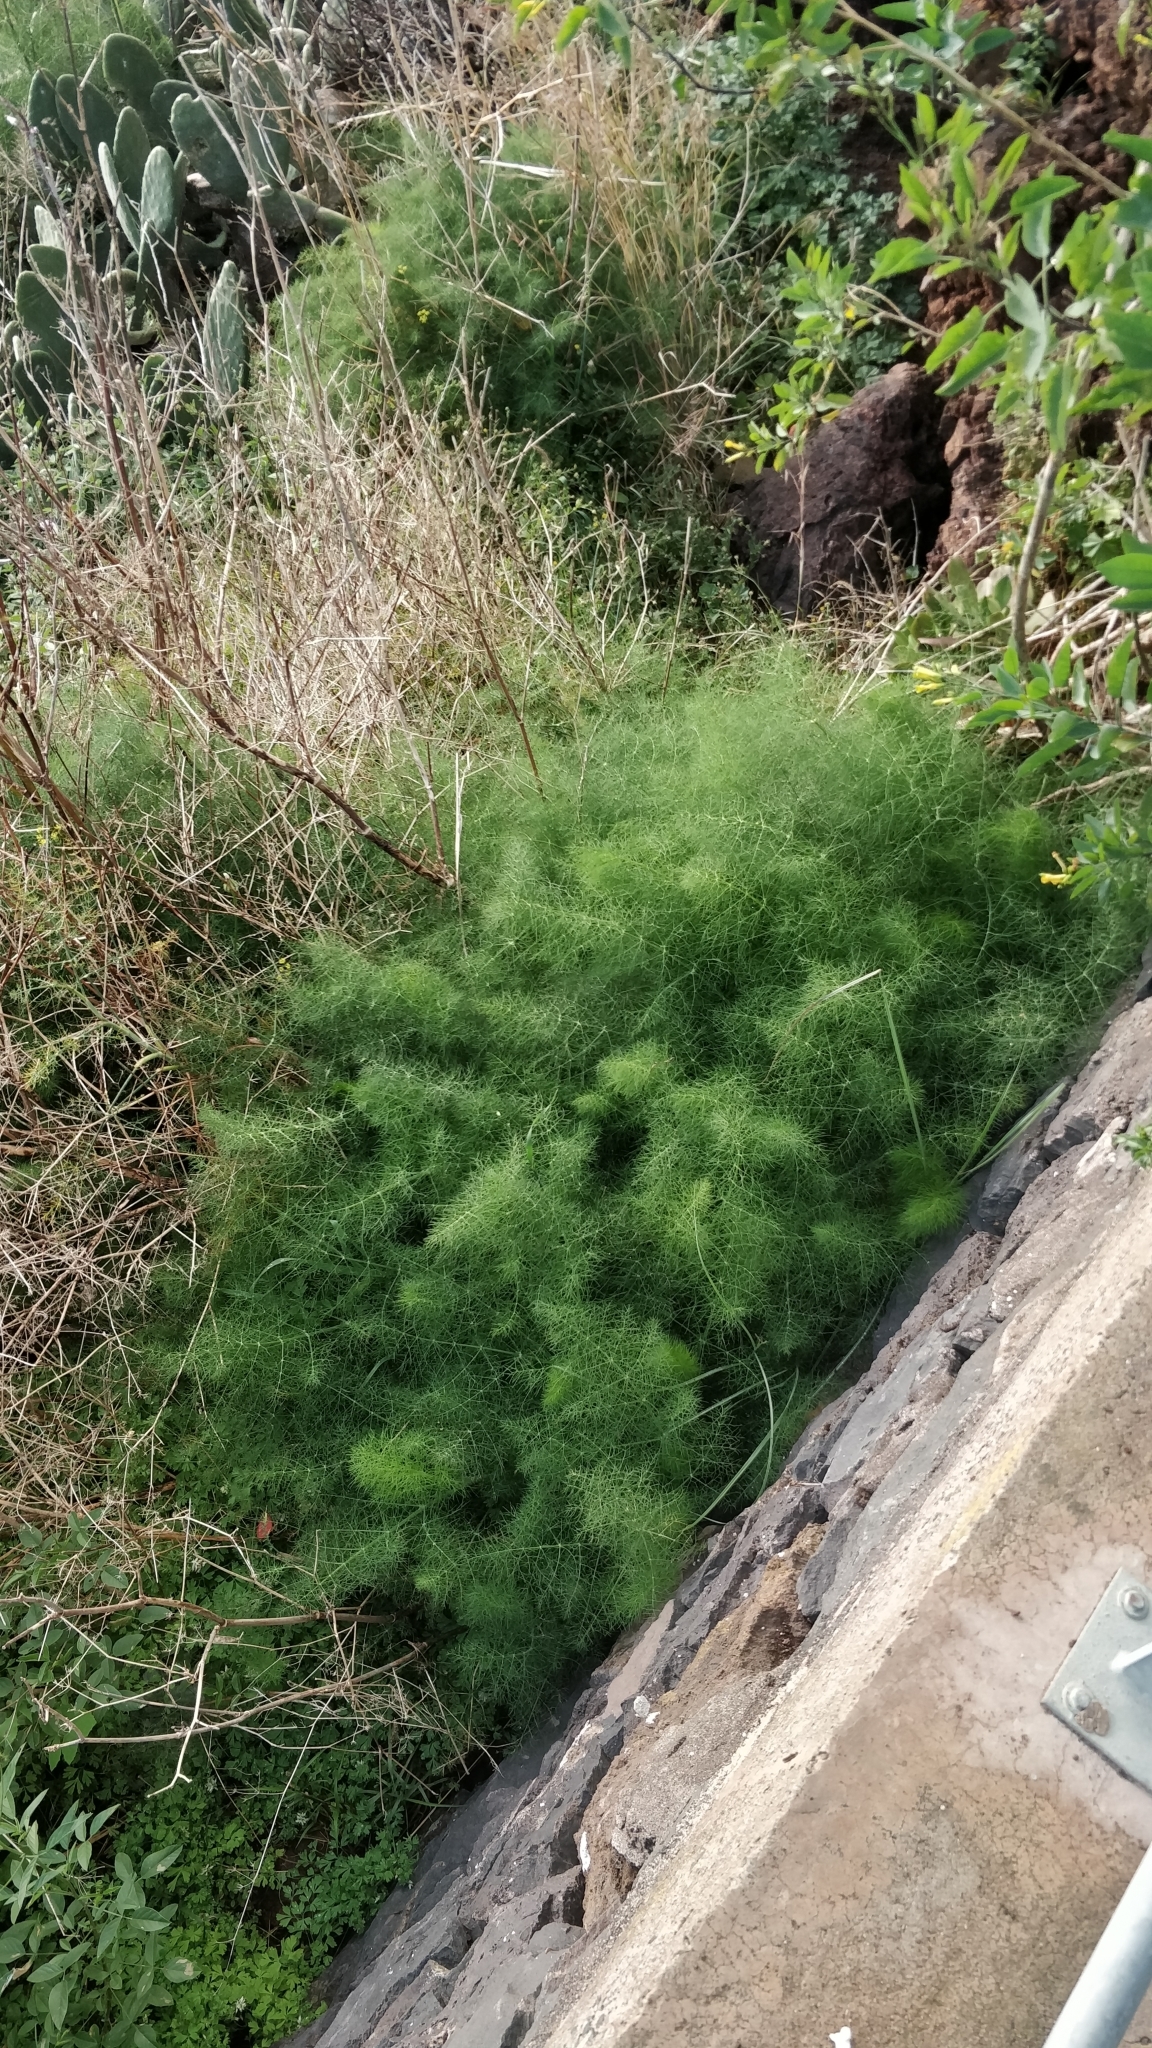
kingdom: Plantae
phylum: Tracheophyta
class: Magnoliopsida
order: Apiales
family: Apiaceae
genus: Foeniculum
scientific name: Foeniculum vulgare
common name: Fennel
